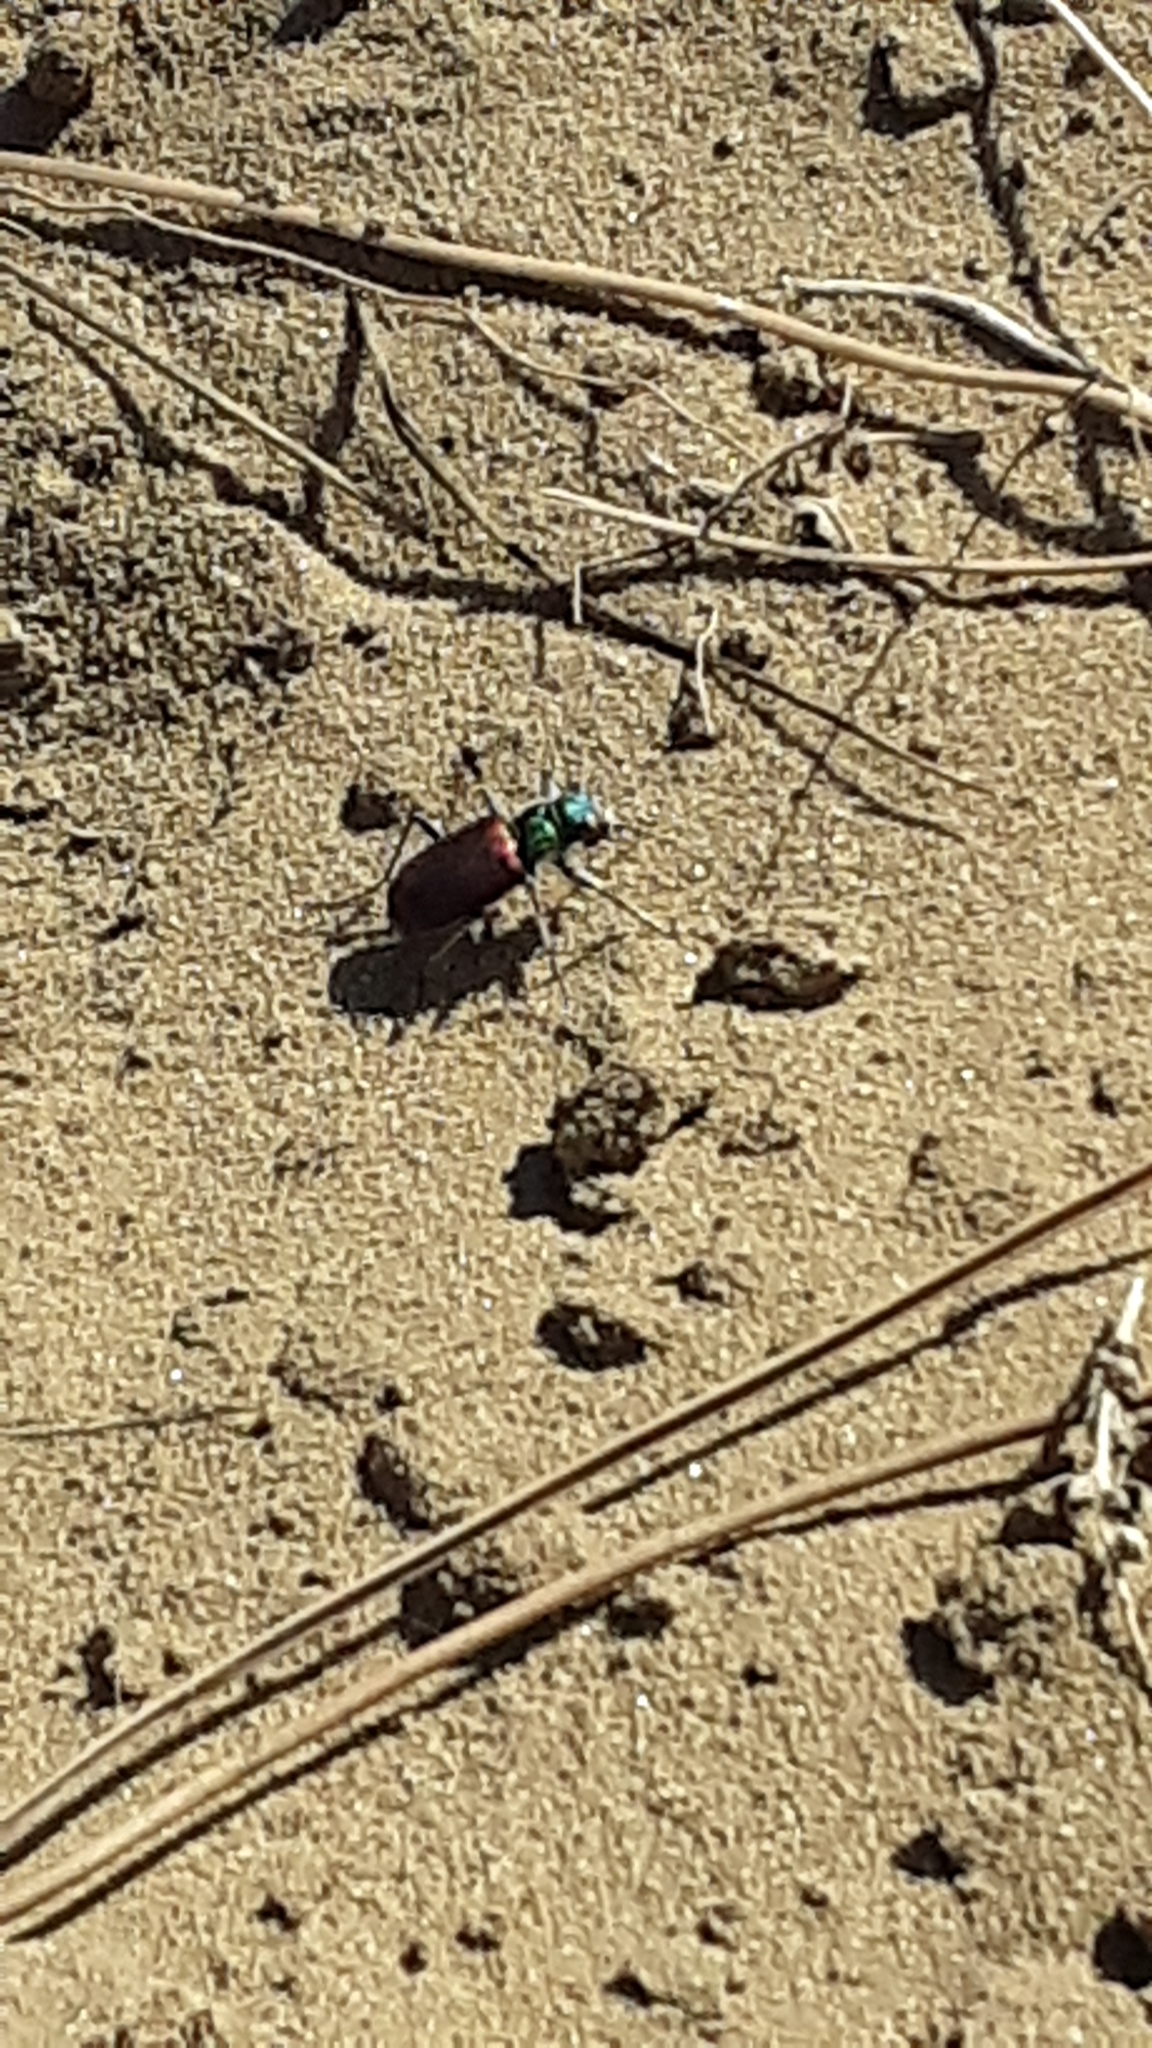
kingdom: Animalia
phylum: Arthropoda
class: Insecta
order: Coleoptera
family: Carabidae
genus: Cicindela
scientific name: Cicindela scutellaris
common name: Festive tiger beetle
